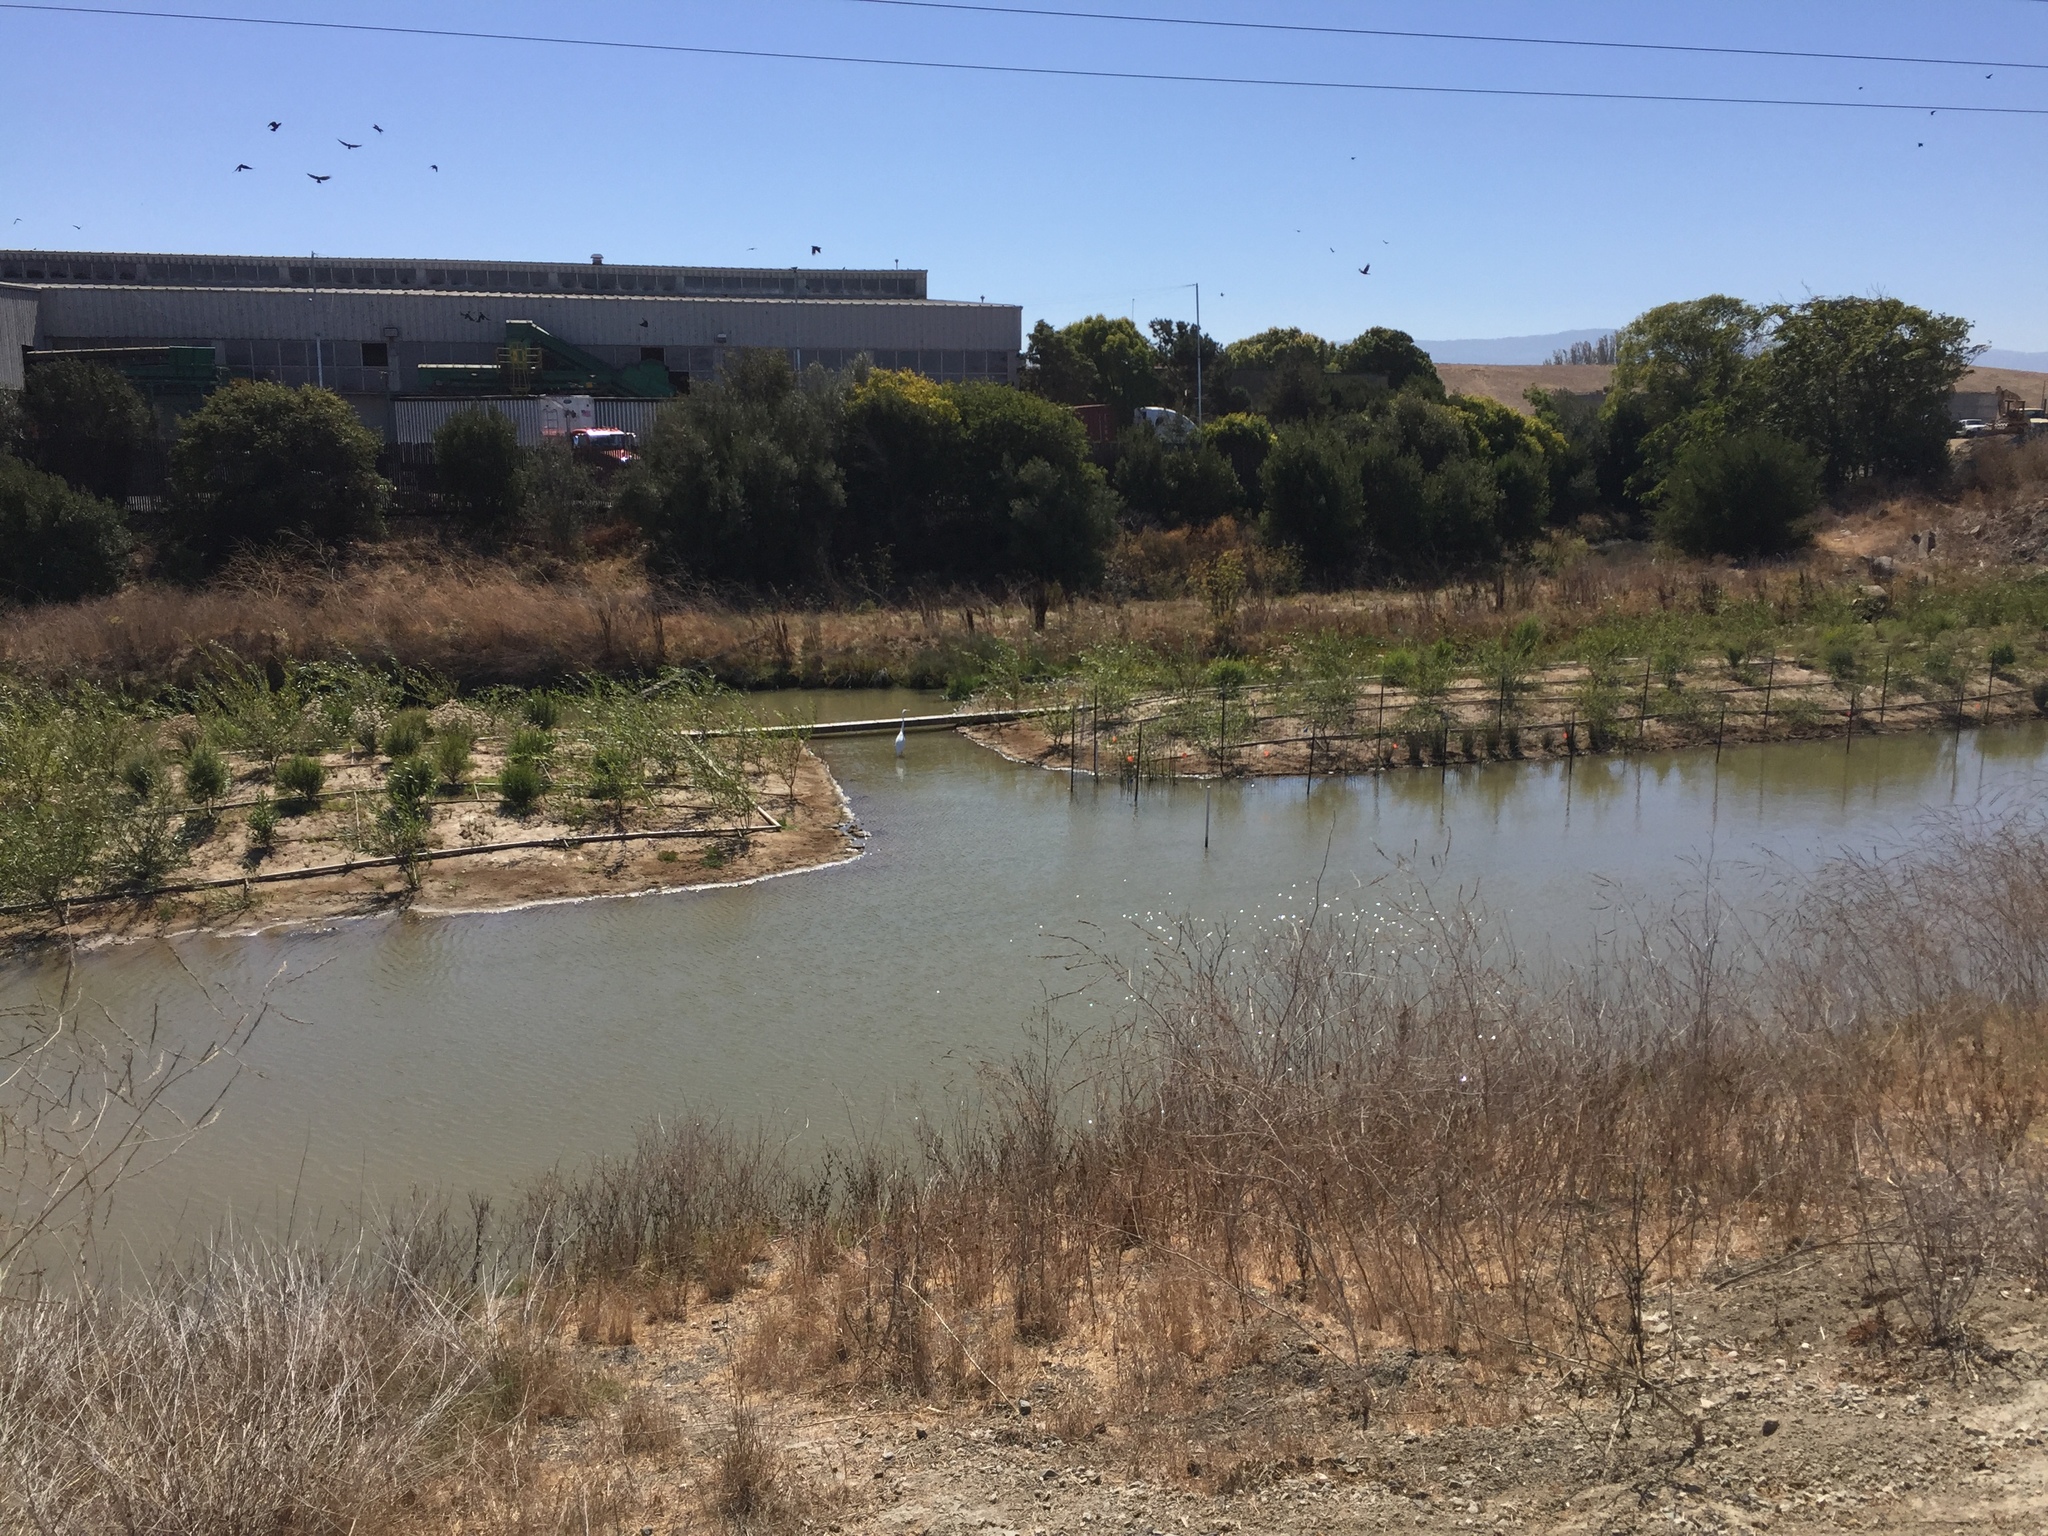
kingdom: Animalia
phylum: Chordata
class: Aves
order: Pelecaniformes
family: Ardeidae
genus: Ardea
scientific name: Ardea alba
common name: Great egret
